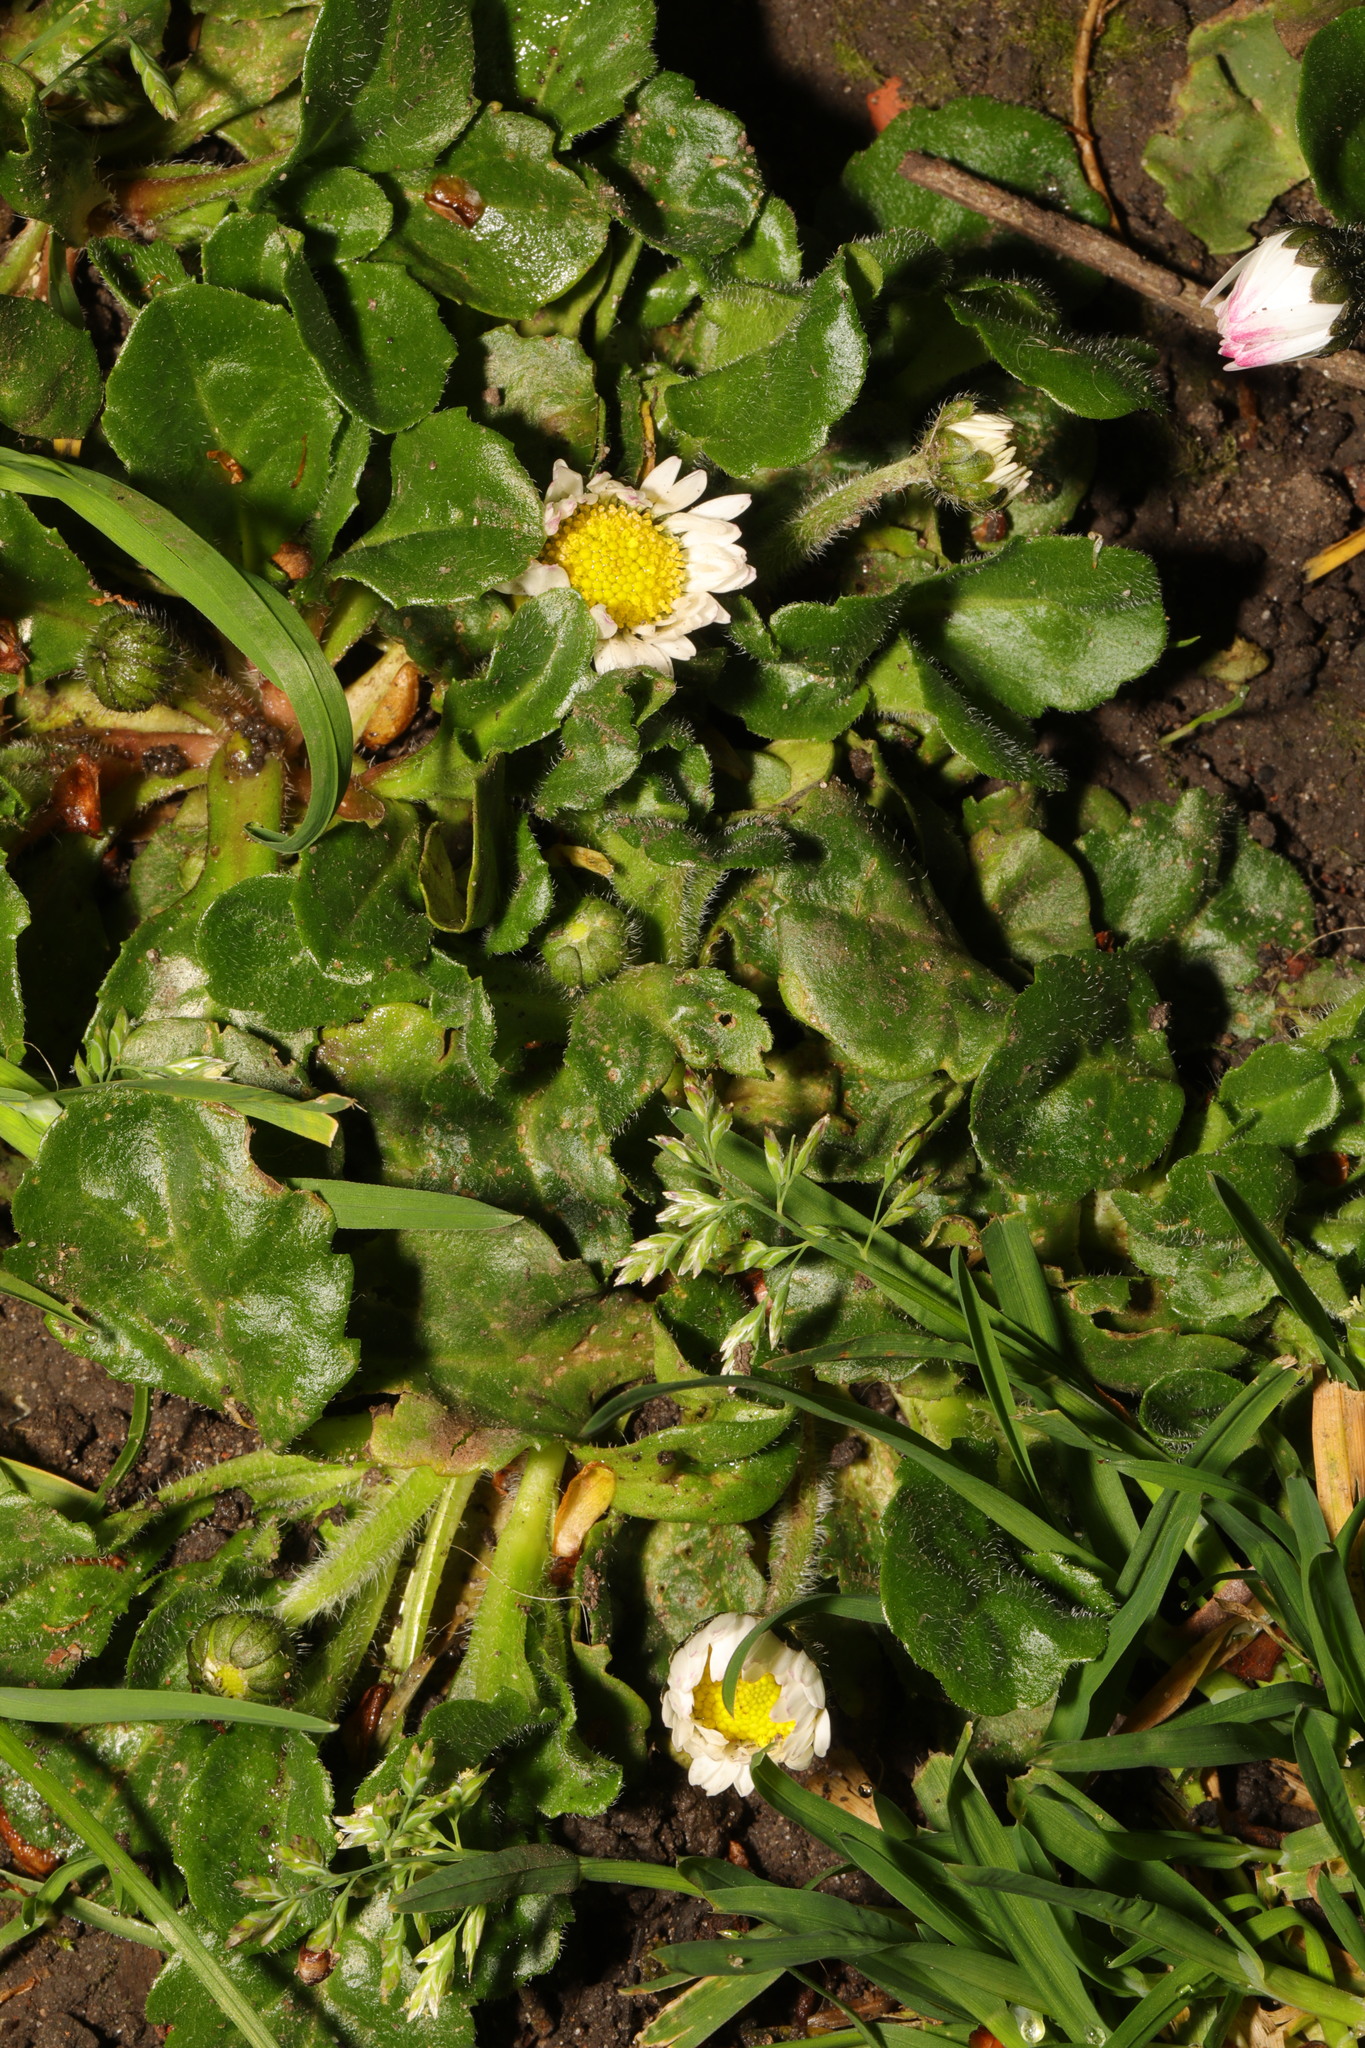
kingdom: Plantae
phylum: Tracheophyta
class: Magnoliopsida
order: Asterales
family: Asteraceae
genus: Bellis
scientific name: Bellis perennis
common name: Lawndaisy
